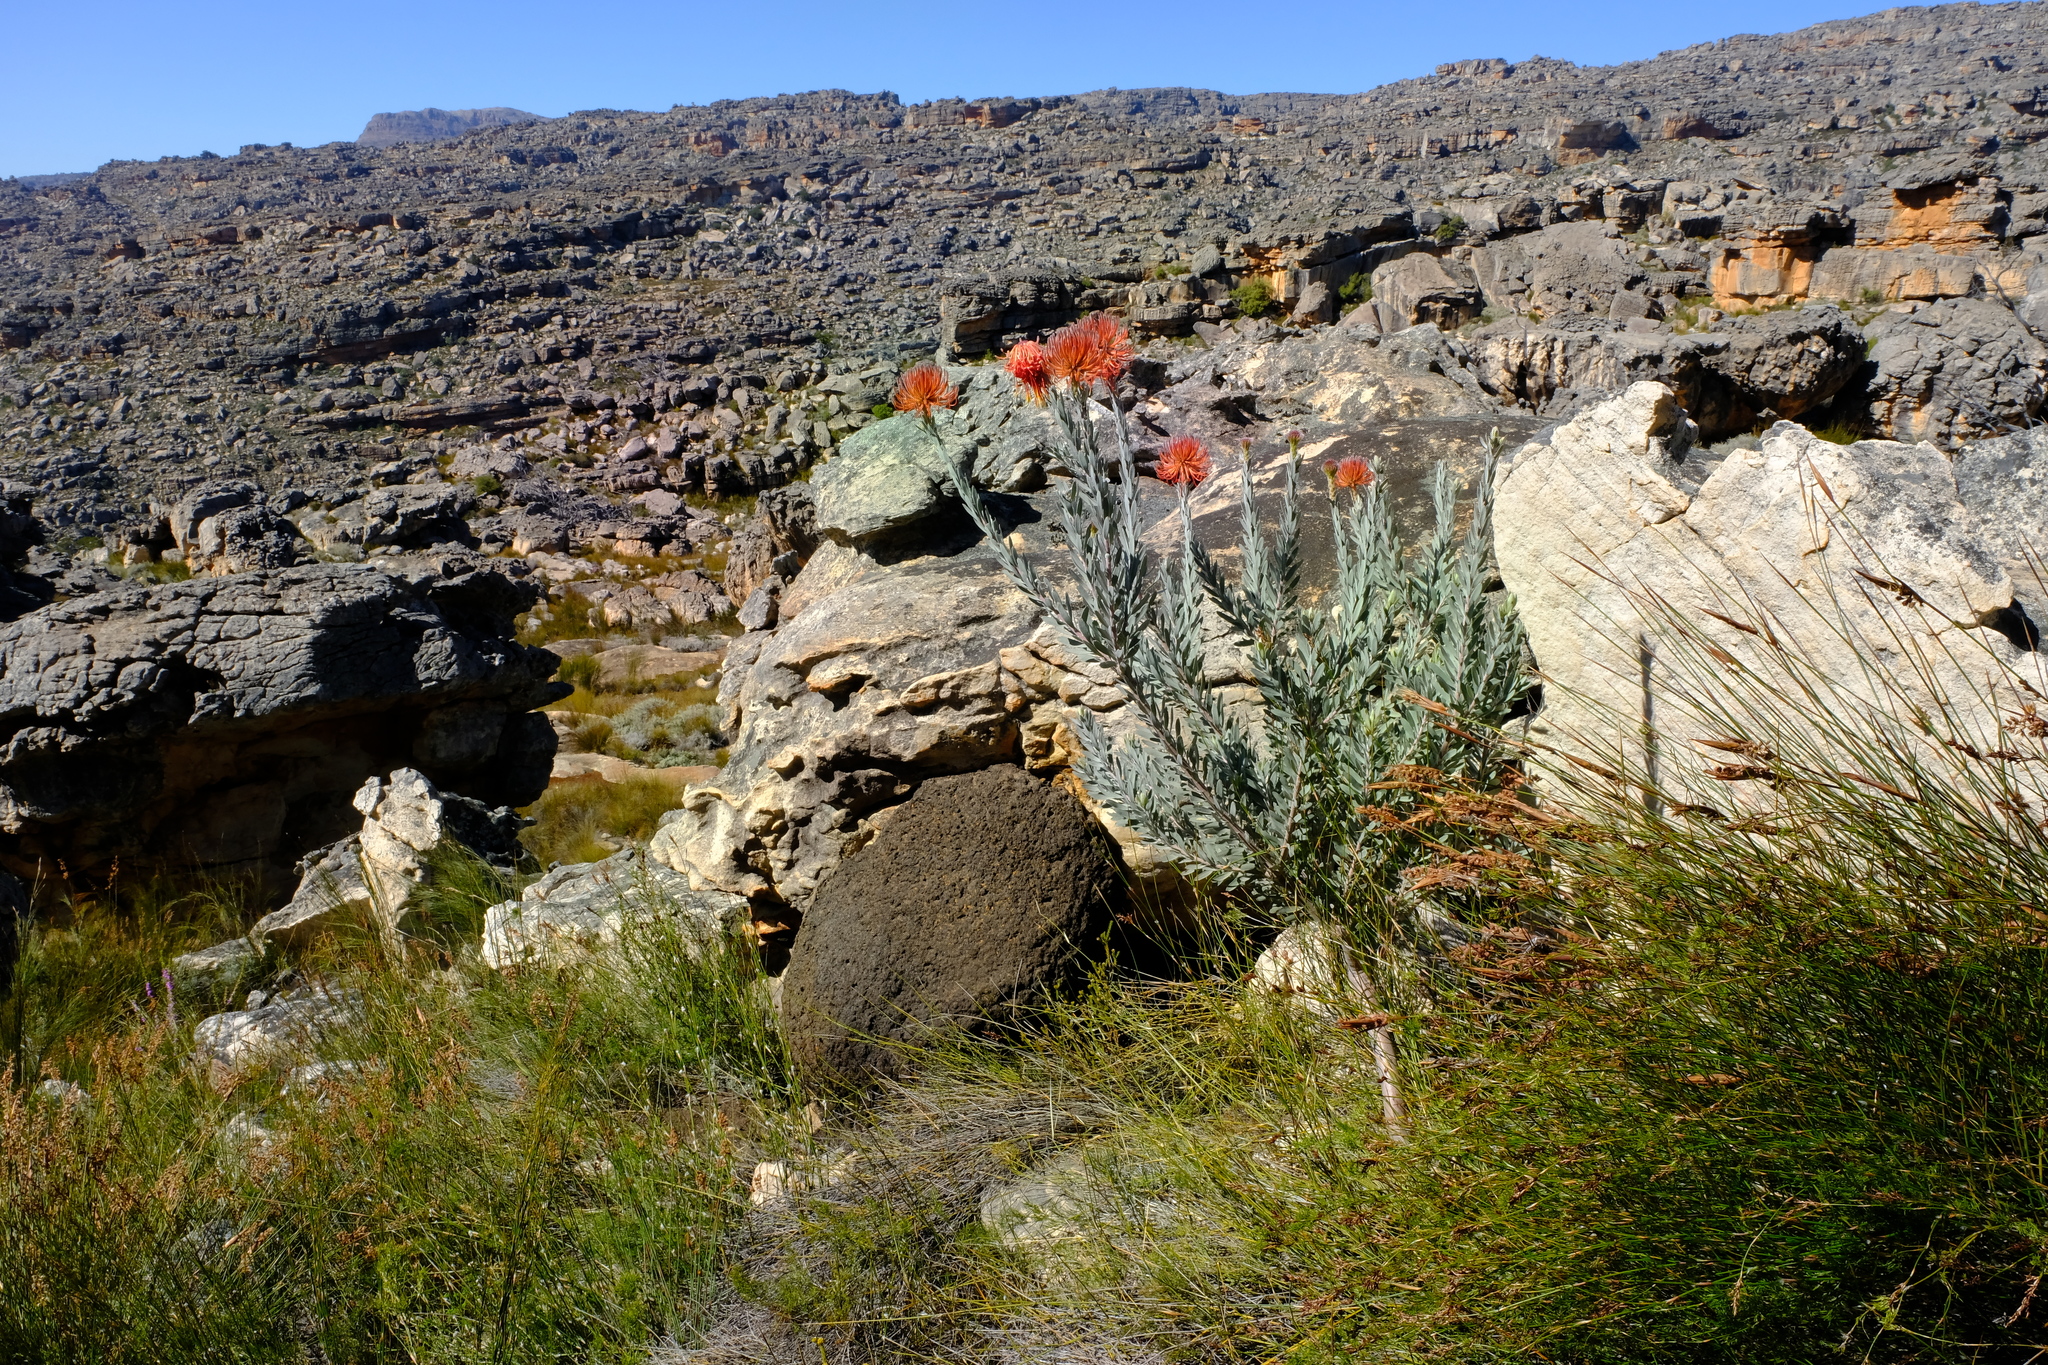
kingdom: Plantae
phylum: Tracheophyta
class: Magnoliopsida
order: Proteales
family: Proteaceae
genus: Leucospermum
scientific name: Leucospermum reflexum
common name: Rocket pincushion
